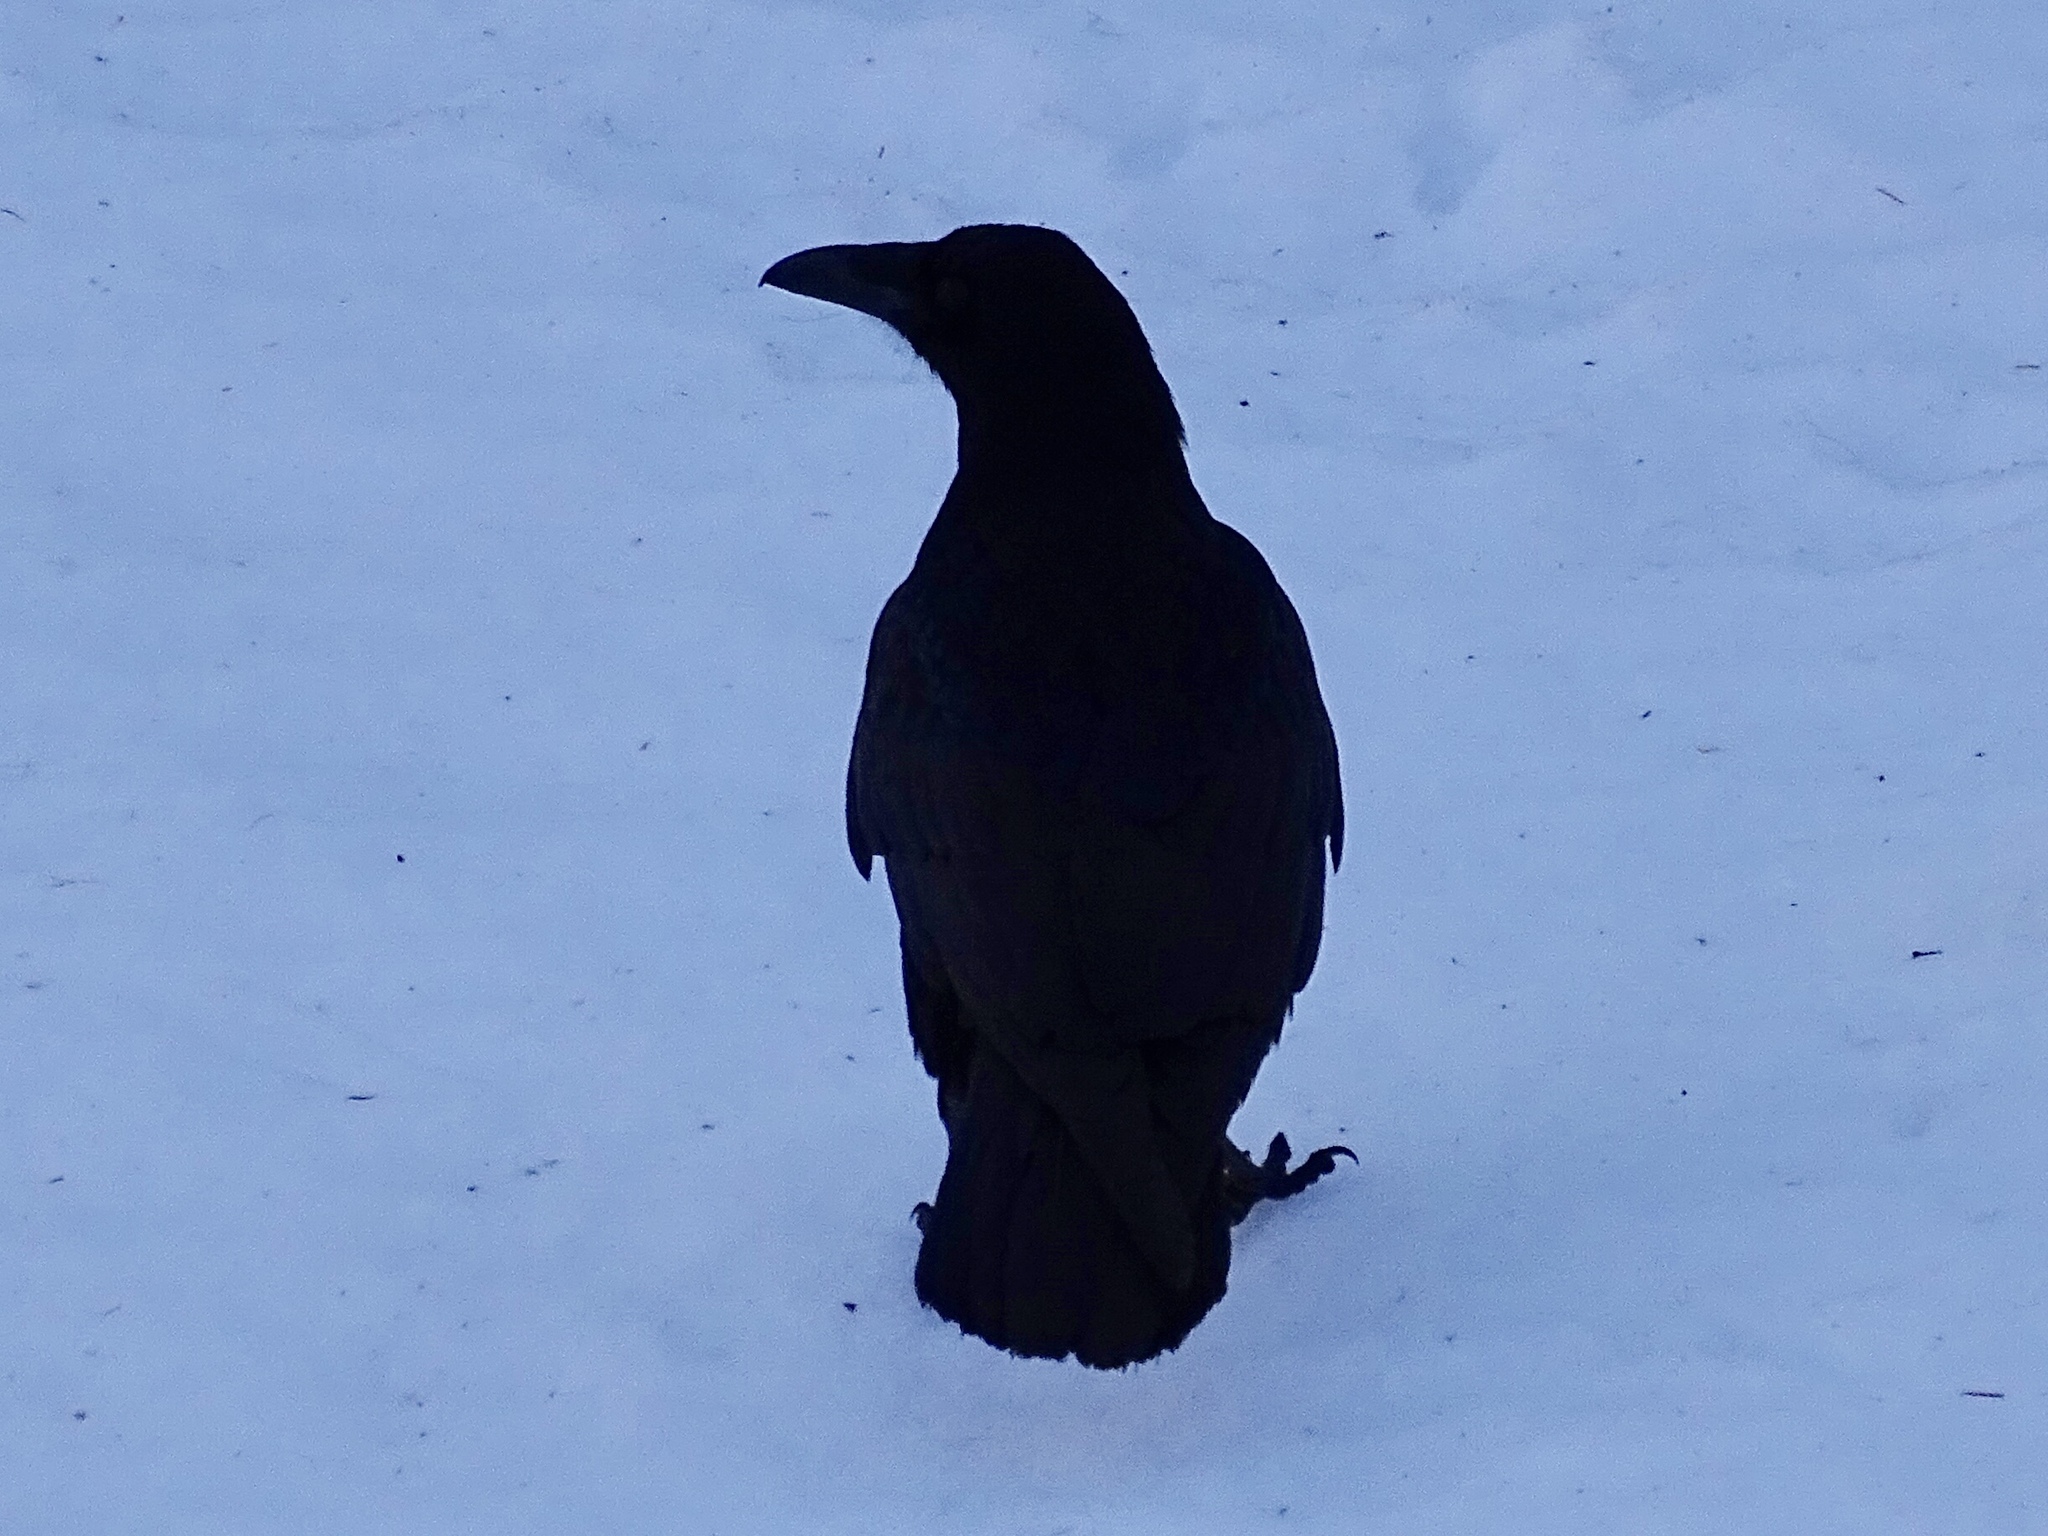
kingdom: Animalia
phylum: Chordata
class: Aves
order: Passeriformes
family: Corvidae
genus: Corvus
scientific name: Corvus corax
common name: Common raven
